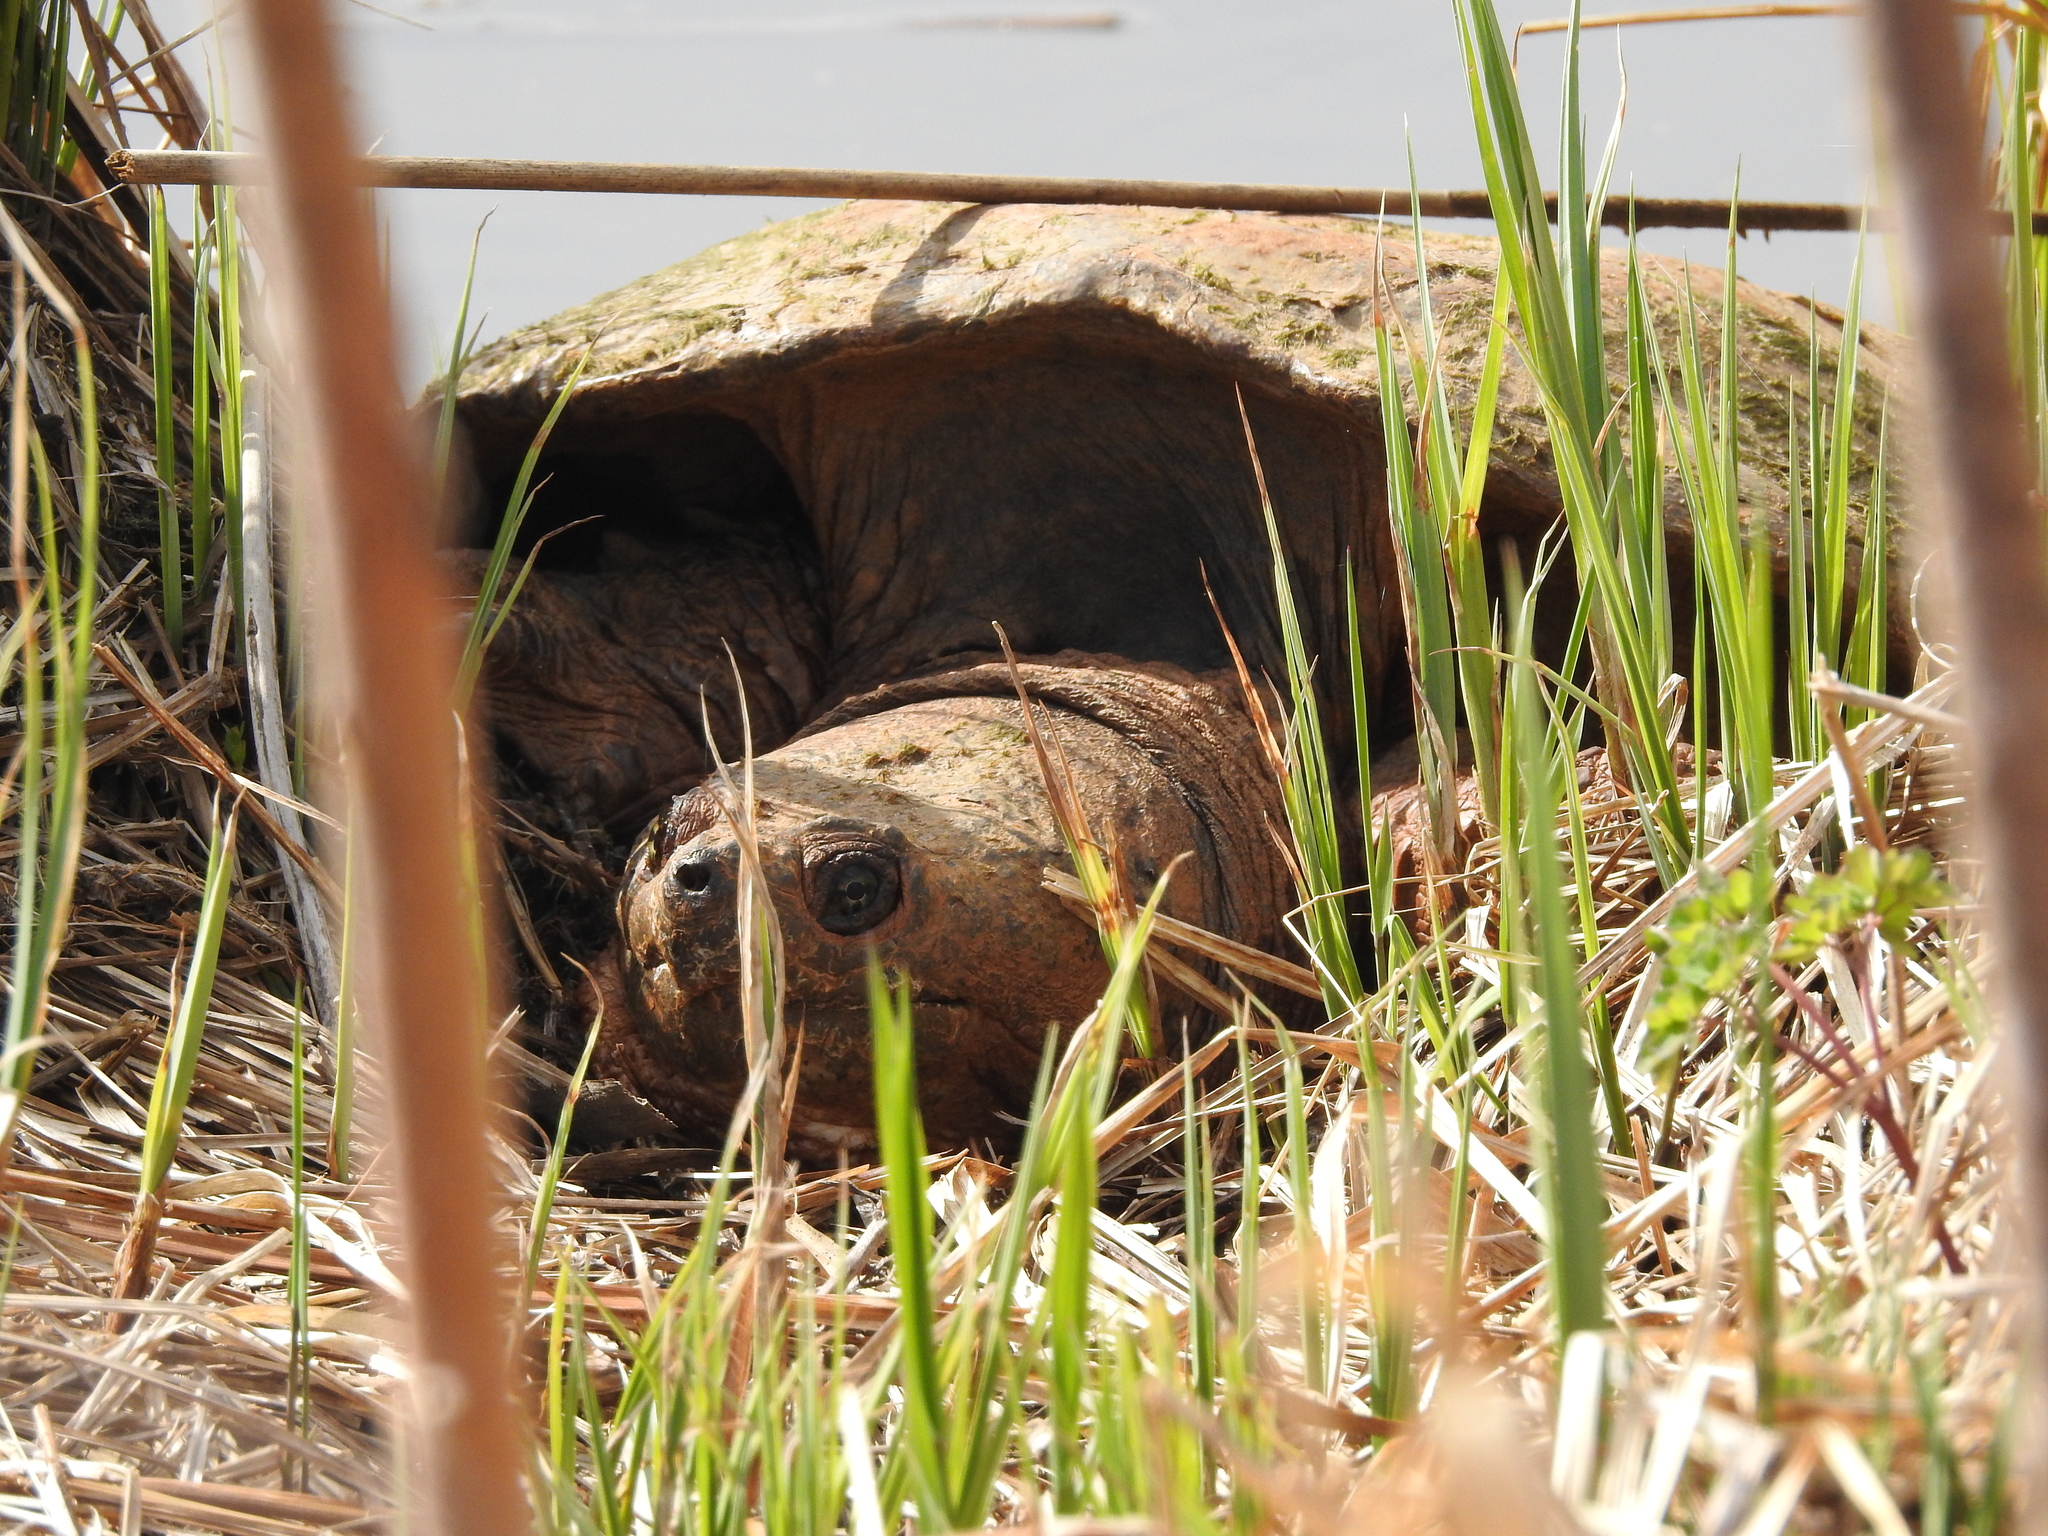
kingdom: Animalia
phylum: Chordata
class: Testudines
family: Chelydridae
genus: Chelydra
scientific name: Chelydra serpentina
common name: Common snapping turtle
